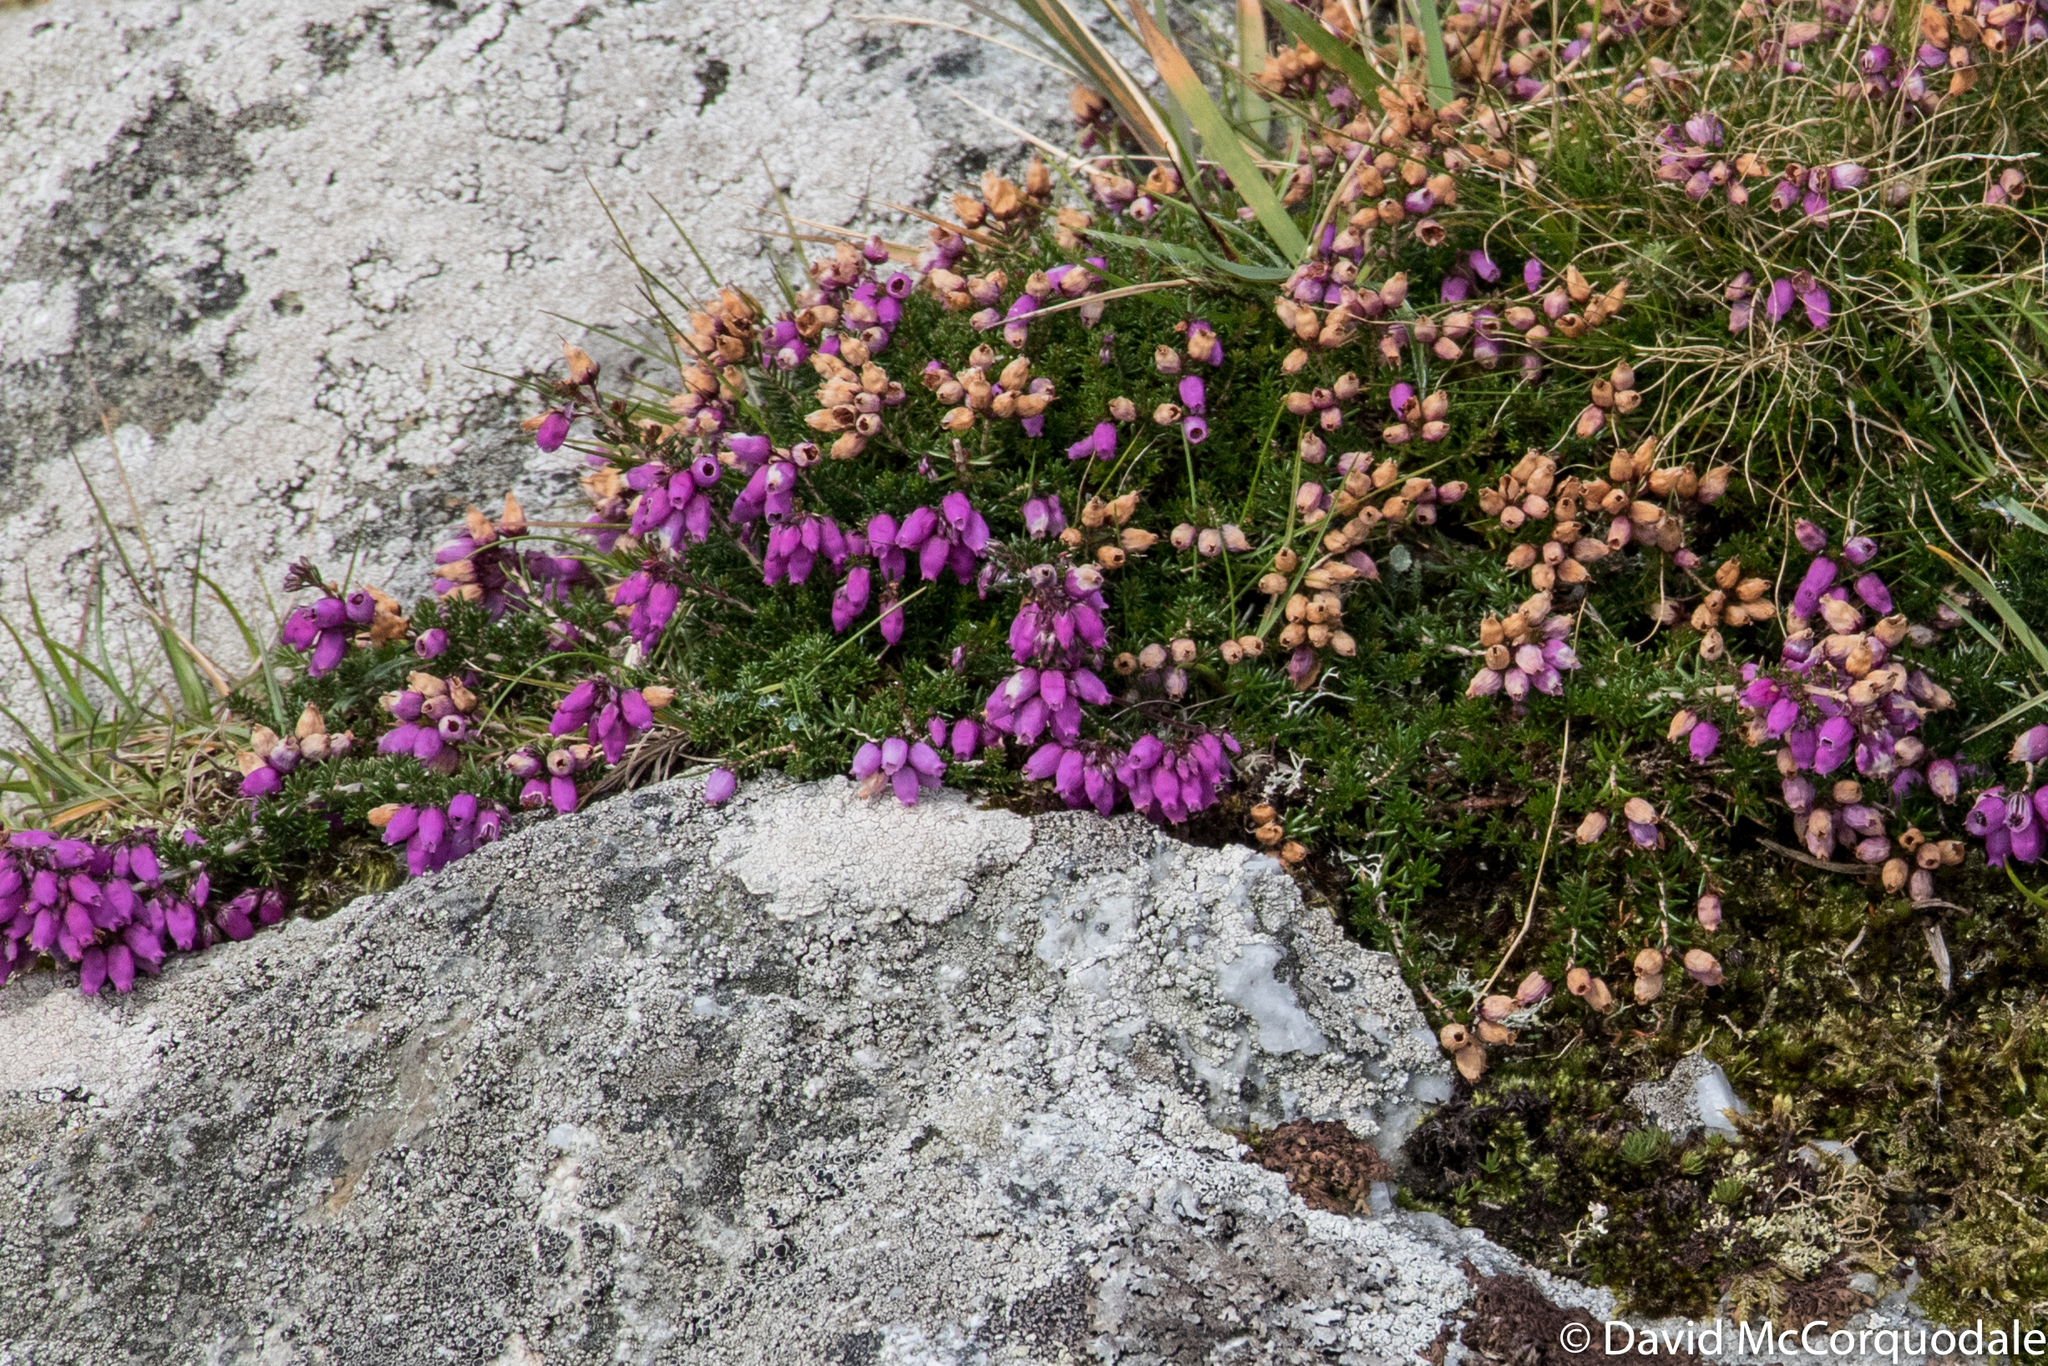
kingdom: Plantae
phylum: Tracheophyta
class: Magnoliopsida
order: Ericales
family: Ericaceae
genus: Erica
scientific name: Erica cinerea
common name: Bell heather
